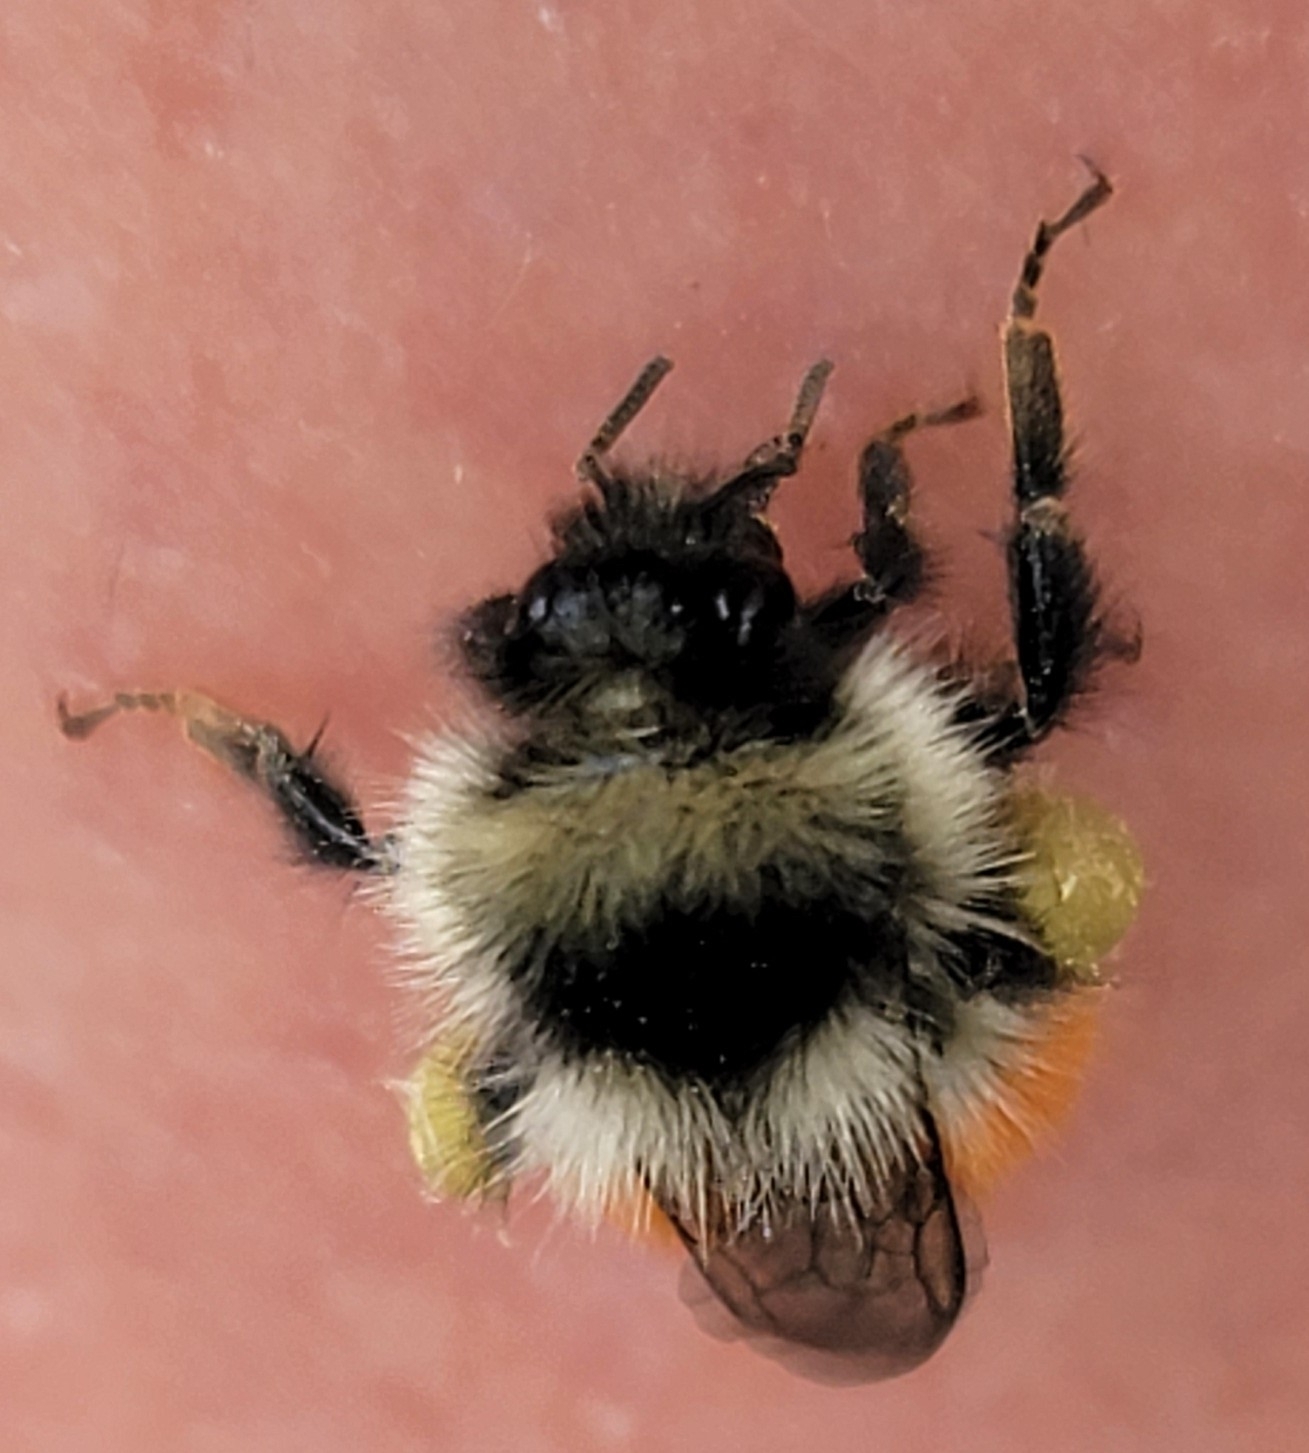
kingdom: Animalia
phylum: Arthropoda
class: Insecta
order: Hymenoptera
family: Apidae
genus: Bombus
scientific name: Bombus sylvicola
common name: Forest bumble bee
